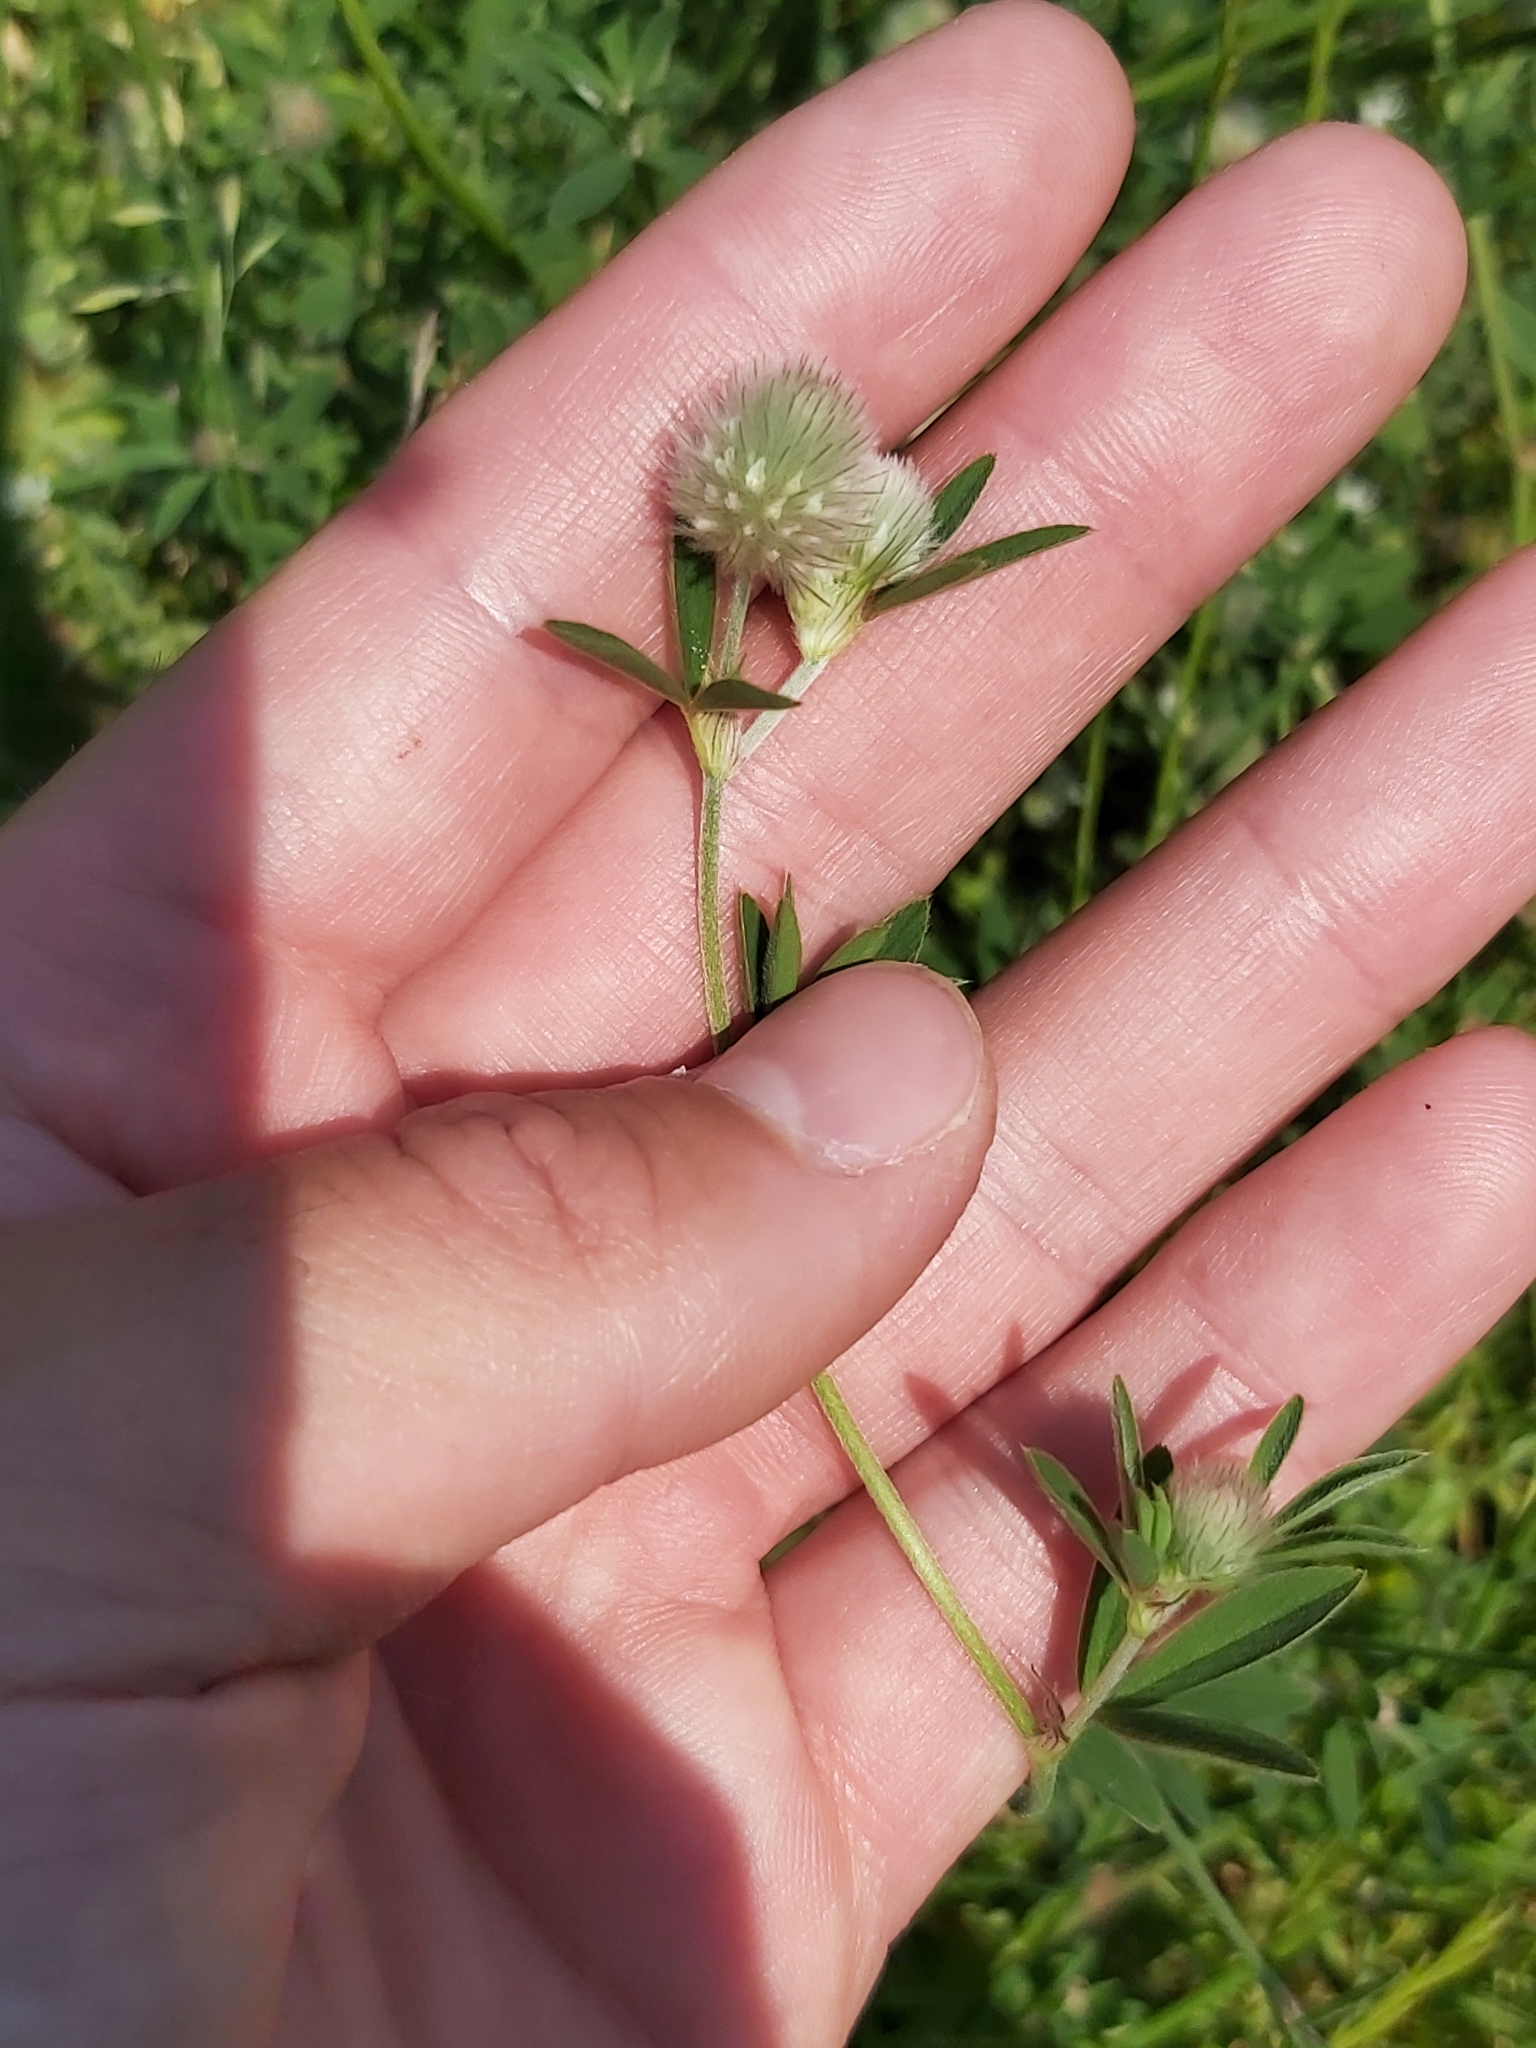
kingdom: Plantae
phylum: Tracheophyta
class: Magnoliopsida
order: Fabales
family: Fabaceae
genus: Trifolium
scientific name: Trifolium arvense
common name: Hare's-foot clover
